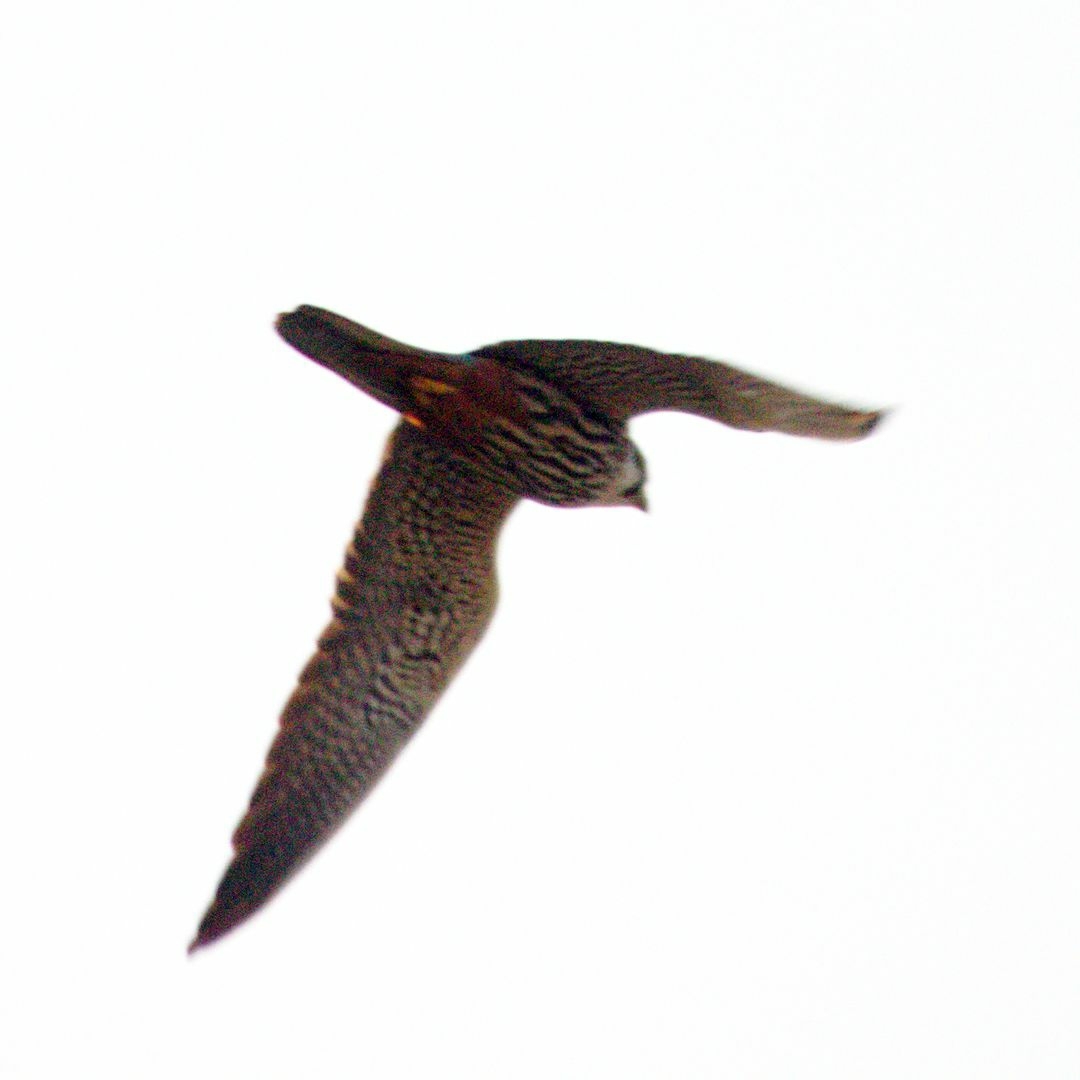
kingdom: Animalia
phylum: Chordata
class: Aves
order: Falconiformes
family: Falconidae
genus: Falco
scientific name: Falco subbuteo
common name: Eurasian hobby
